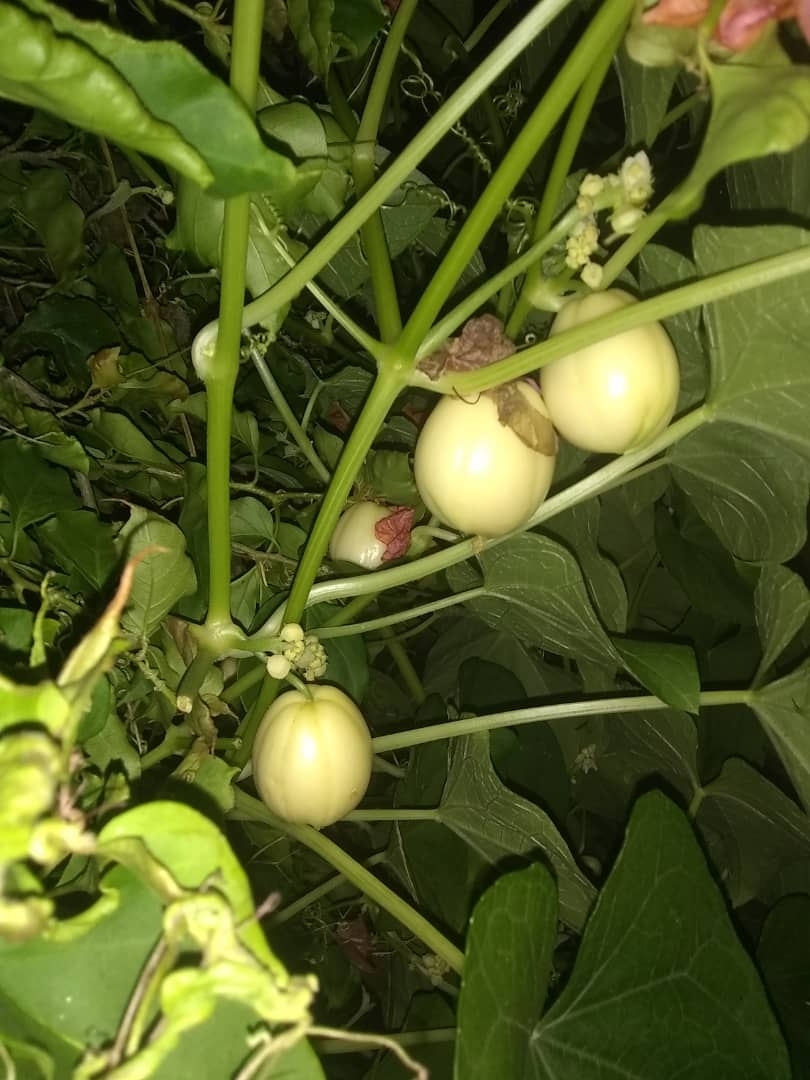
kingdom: Plantae
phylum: Tracheophyta
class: Magnoliopsida
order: Cucurbitales
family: Cucurbitaceae
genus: Sechium
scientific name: Sechium edule
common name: Chayote
